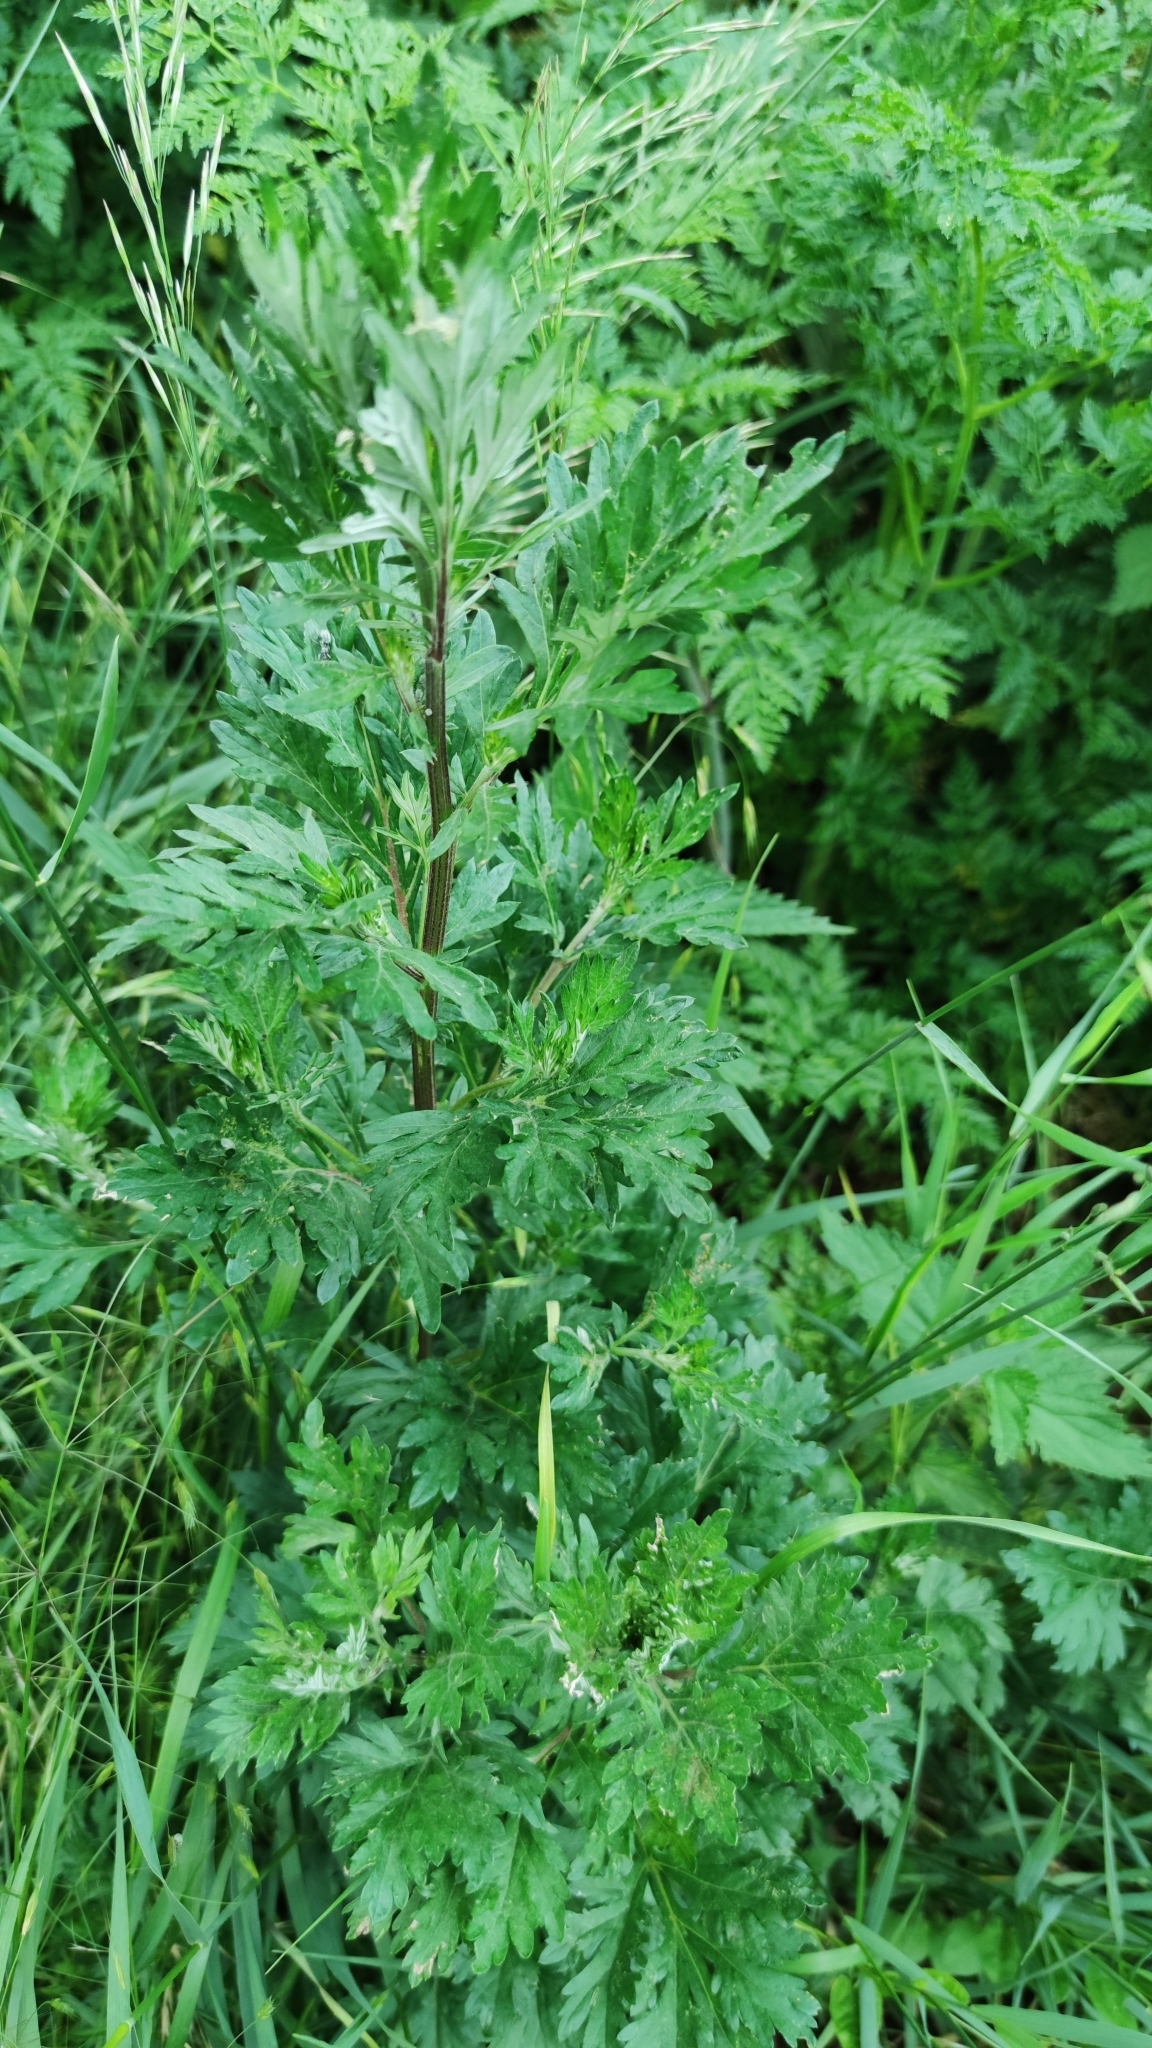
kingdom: Plantae
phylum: Tracheophyta
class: Magnoliopsida
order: Asterales
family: Asteraceae
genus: Artemisia
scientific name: Artemisia vulgaris
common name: Mugwort
